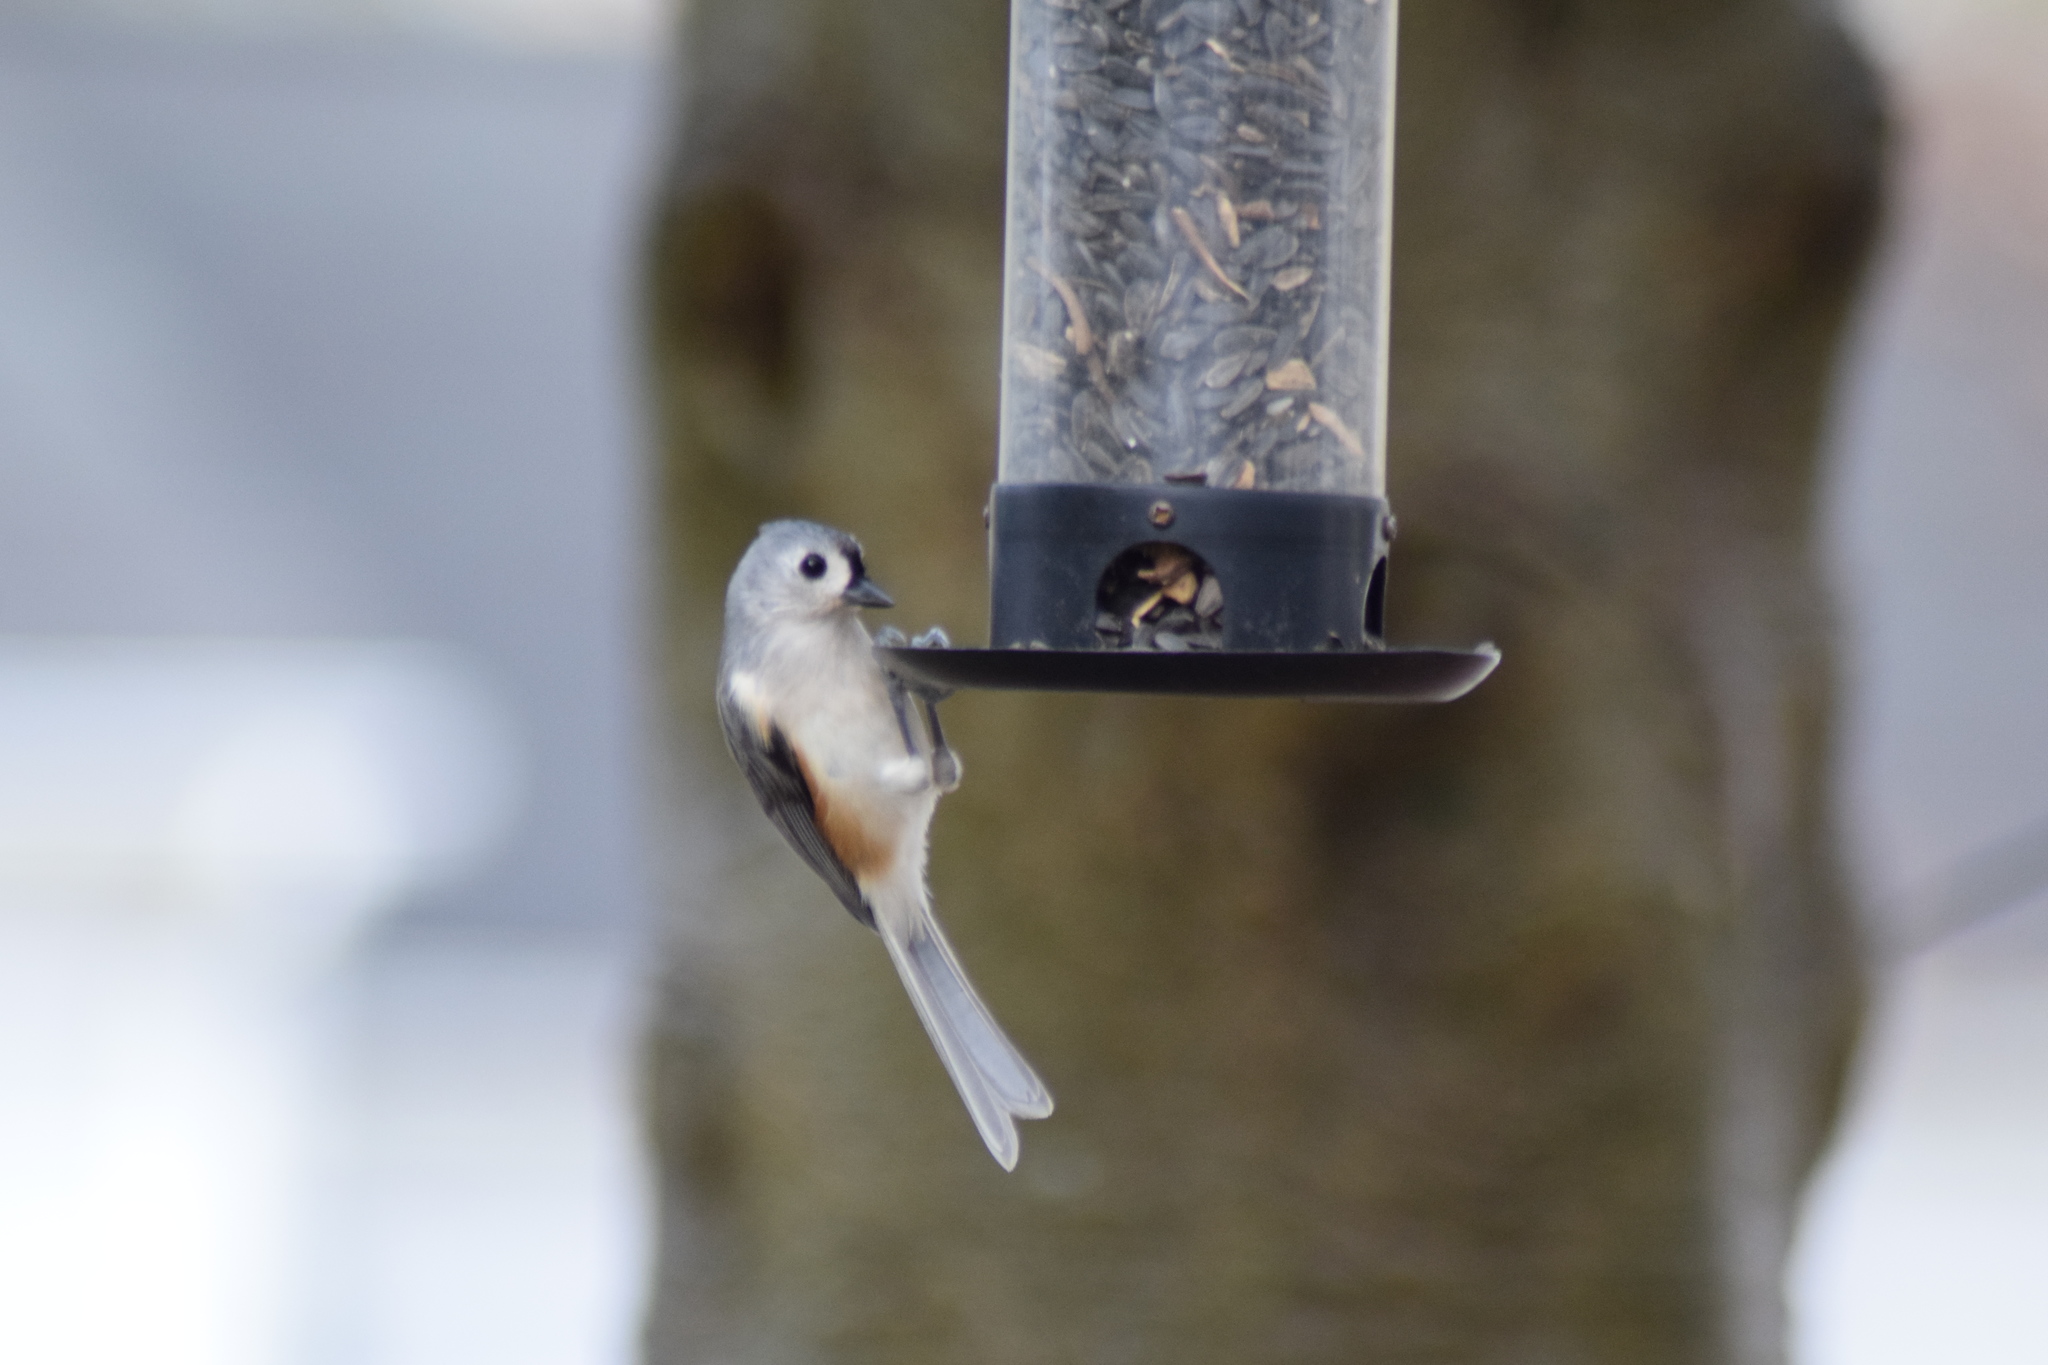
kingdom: Animalia
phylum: Chordata
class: Aves
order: Passeriformes
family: Paridae
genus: Baeolophus
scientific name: Baeolophus bicolor
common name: Tufted titmouse
